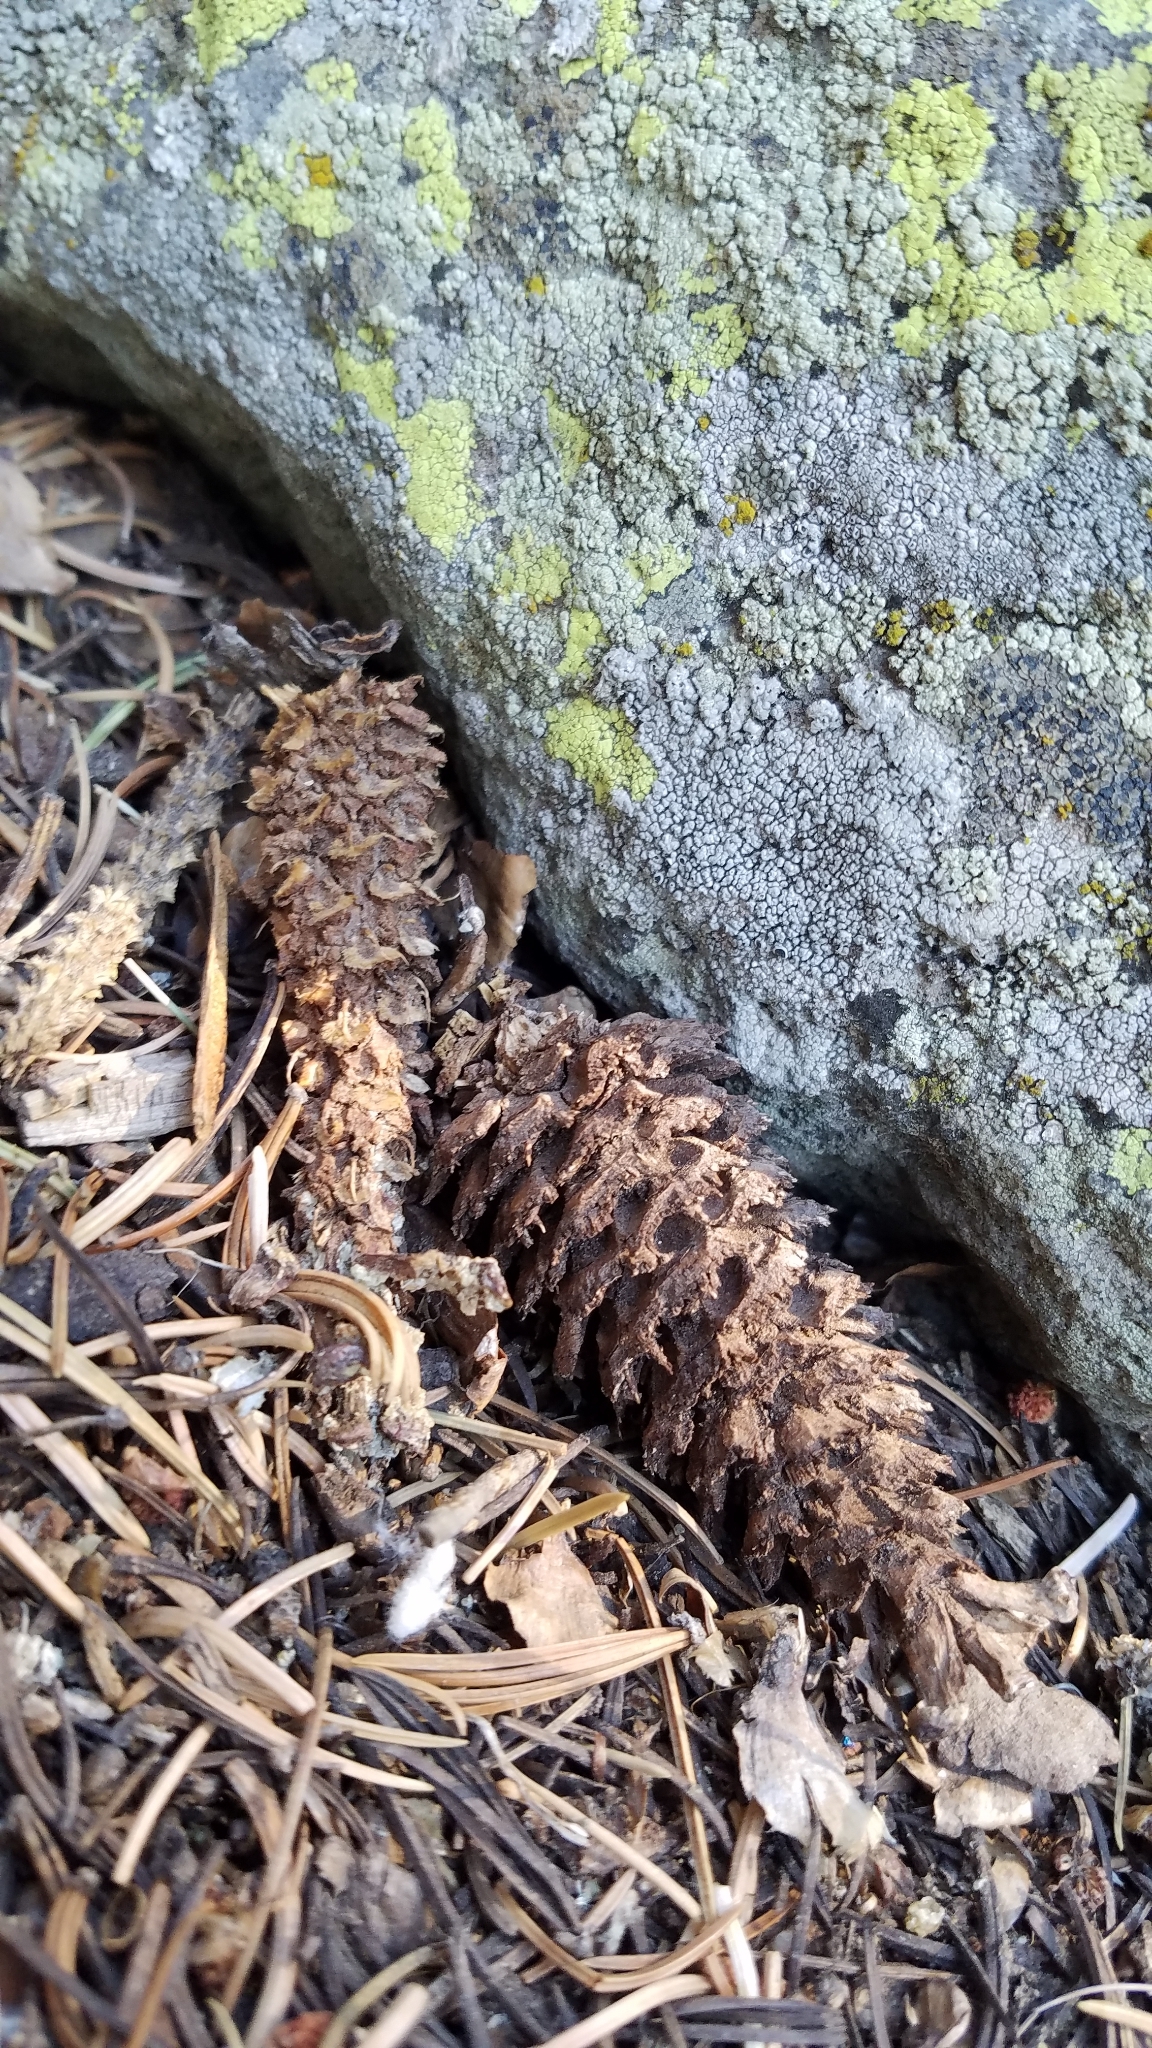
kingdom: Plantae
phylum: Tracheophyta
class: Pinopsida
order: Pinales
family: Pinaceae
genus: Pinus
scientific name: Pinus aristata
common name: Colorado bristlecone pine
